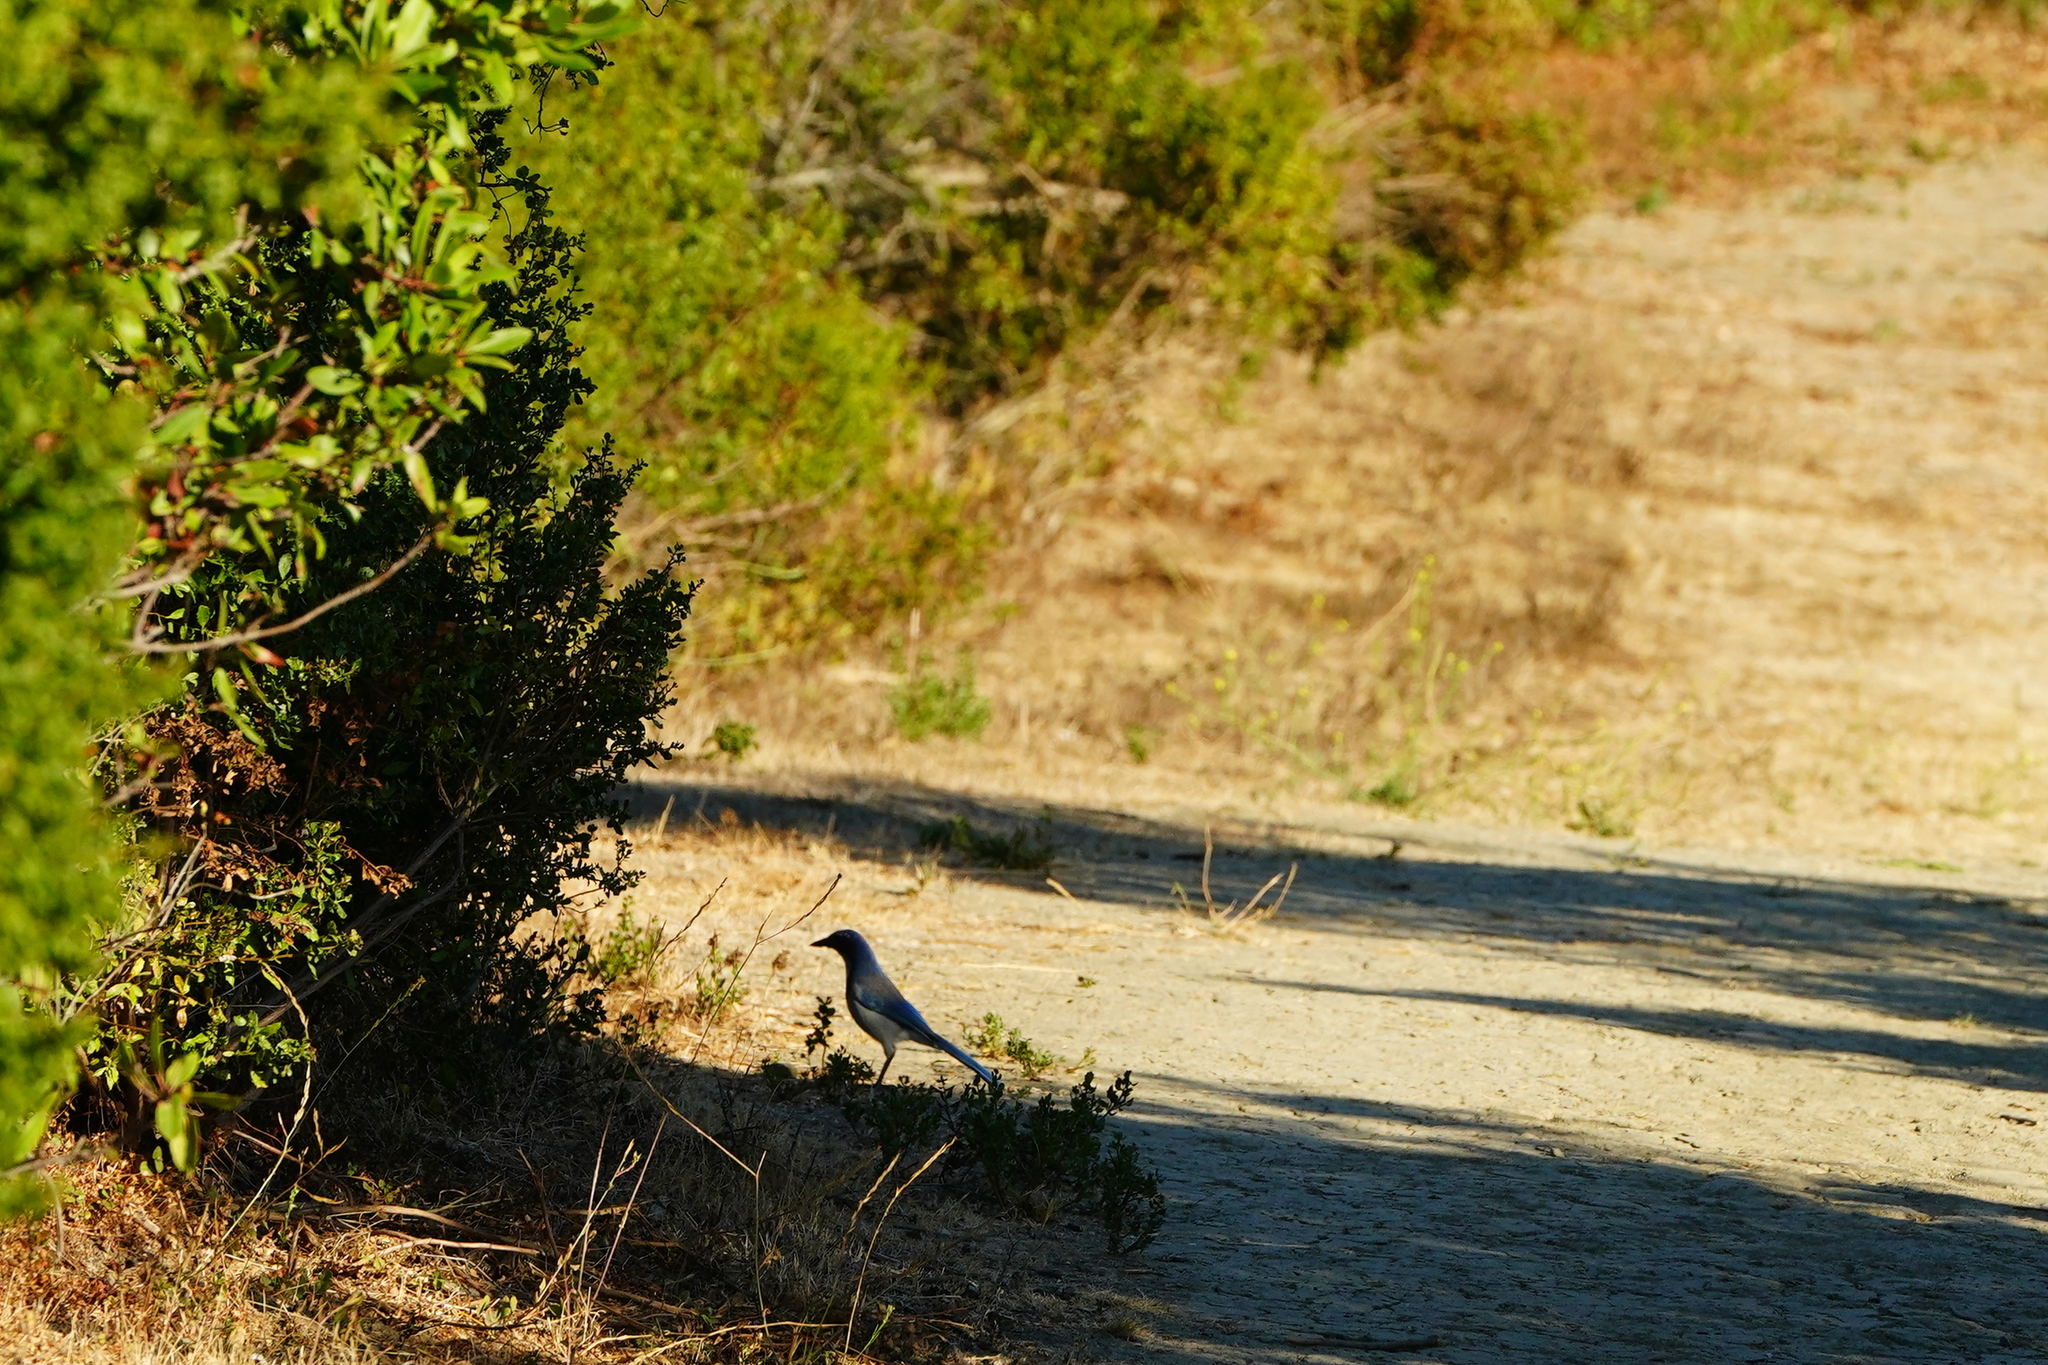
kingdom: Animalia
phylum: Chordata
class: Aves
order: Passeriformes
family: Corvidae
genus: Aphelocoma
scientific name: Aphelocoma californica
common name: California scrub-jay
